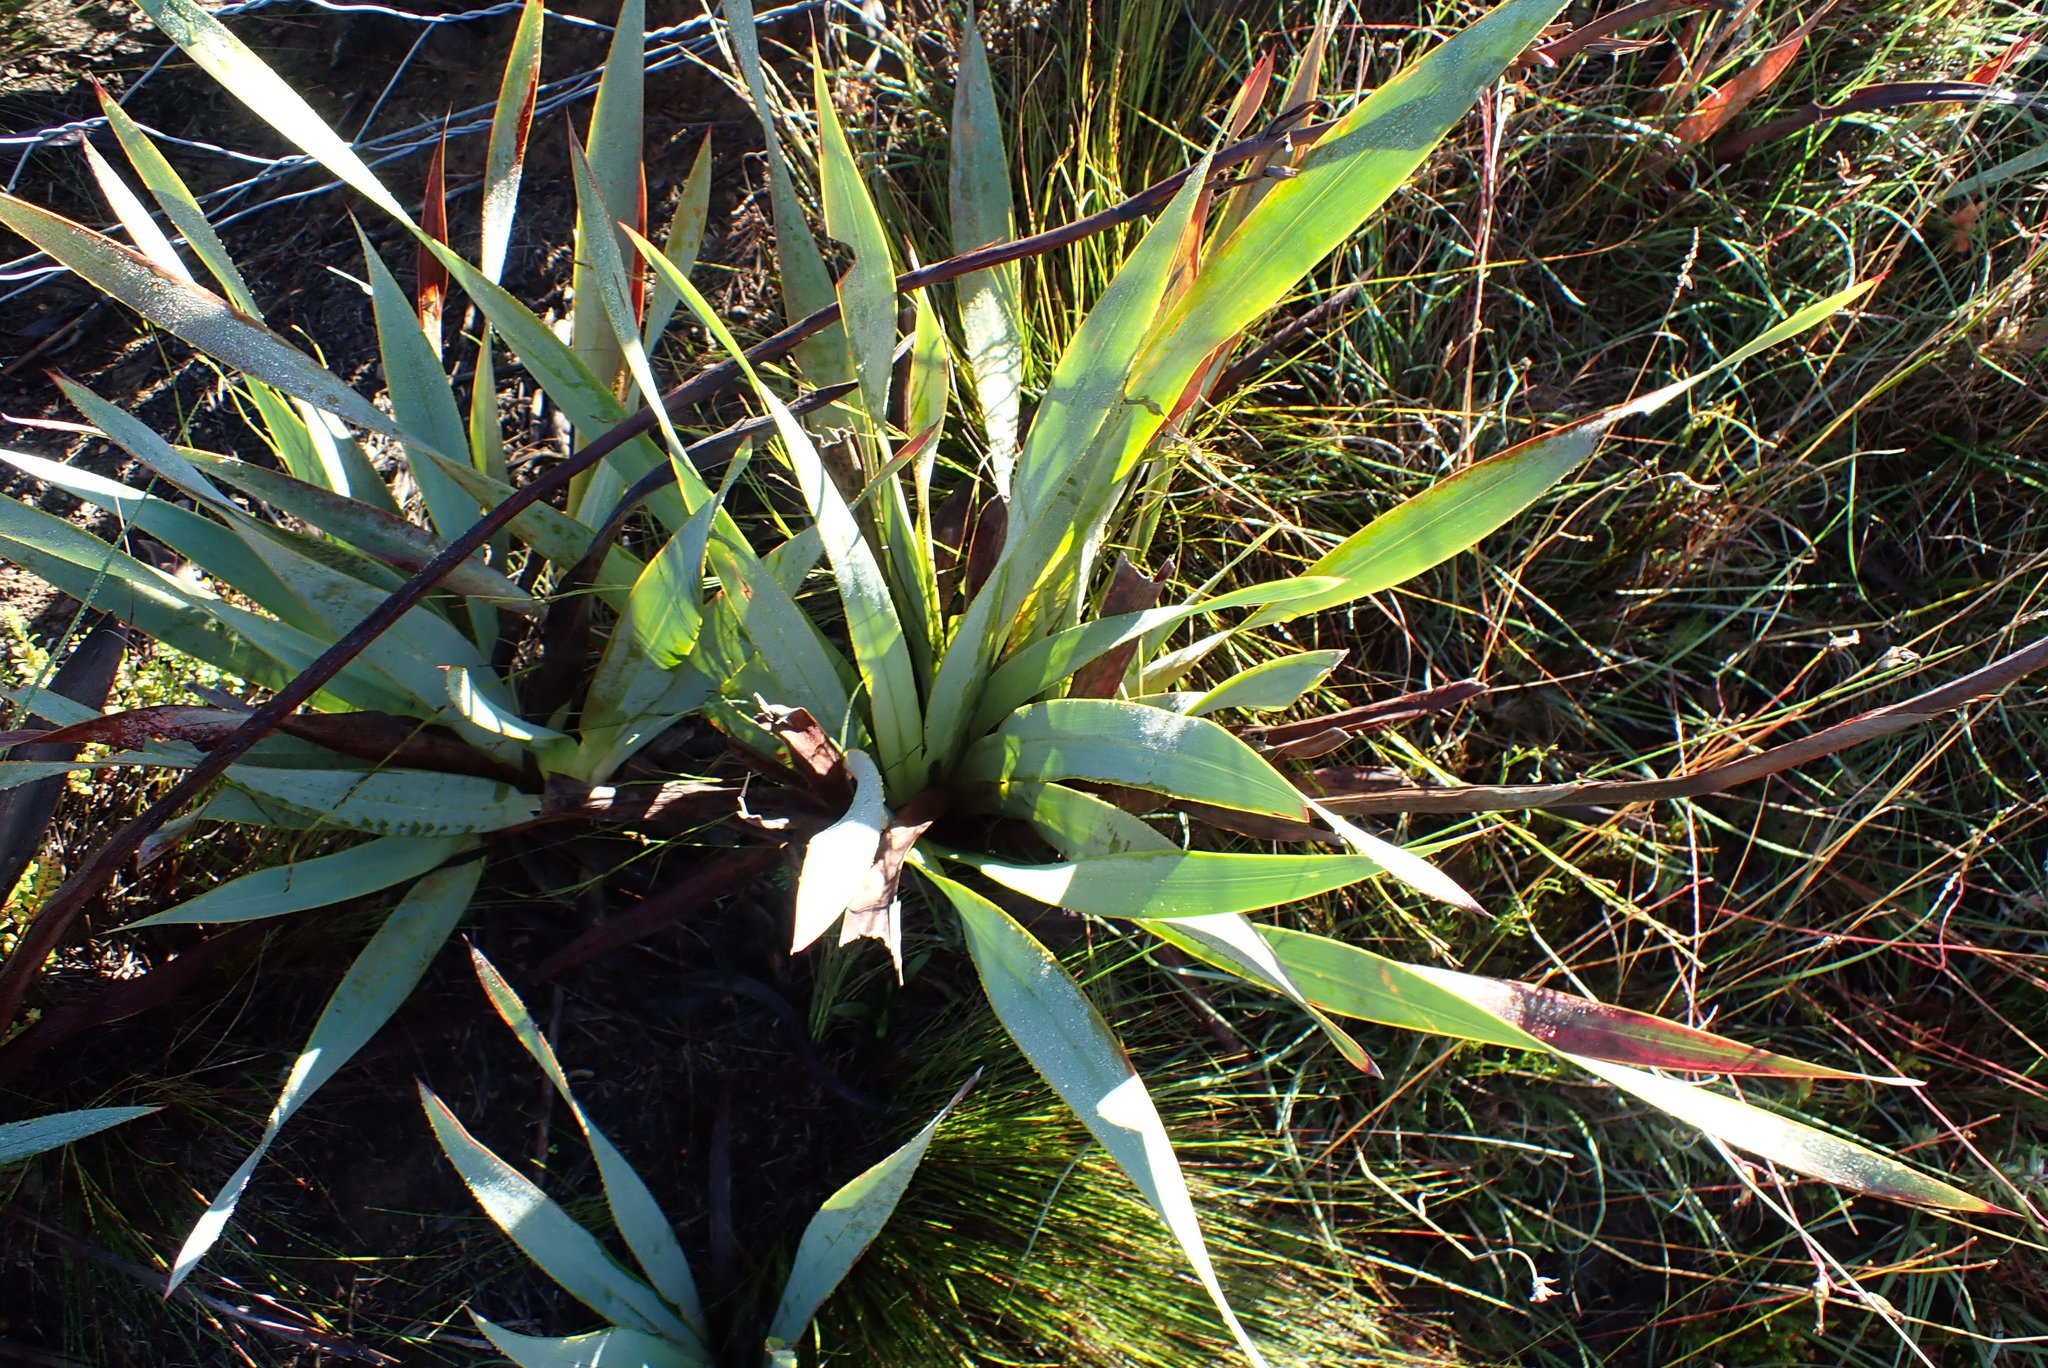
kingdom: Plantae
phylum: Tracheophyta
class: Liliopsida
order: Asparagales
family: Iridaceae
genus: Watsonia
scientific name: Watsonia fourcadei
